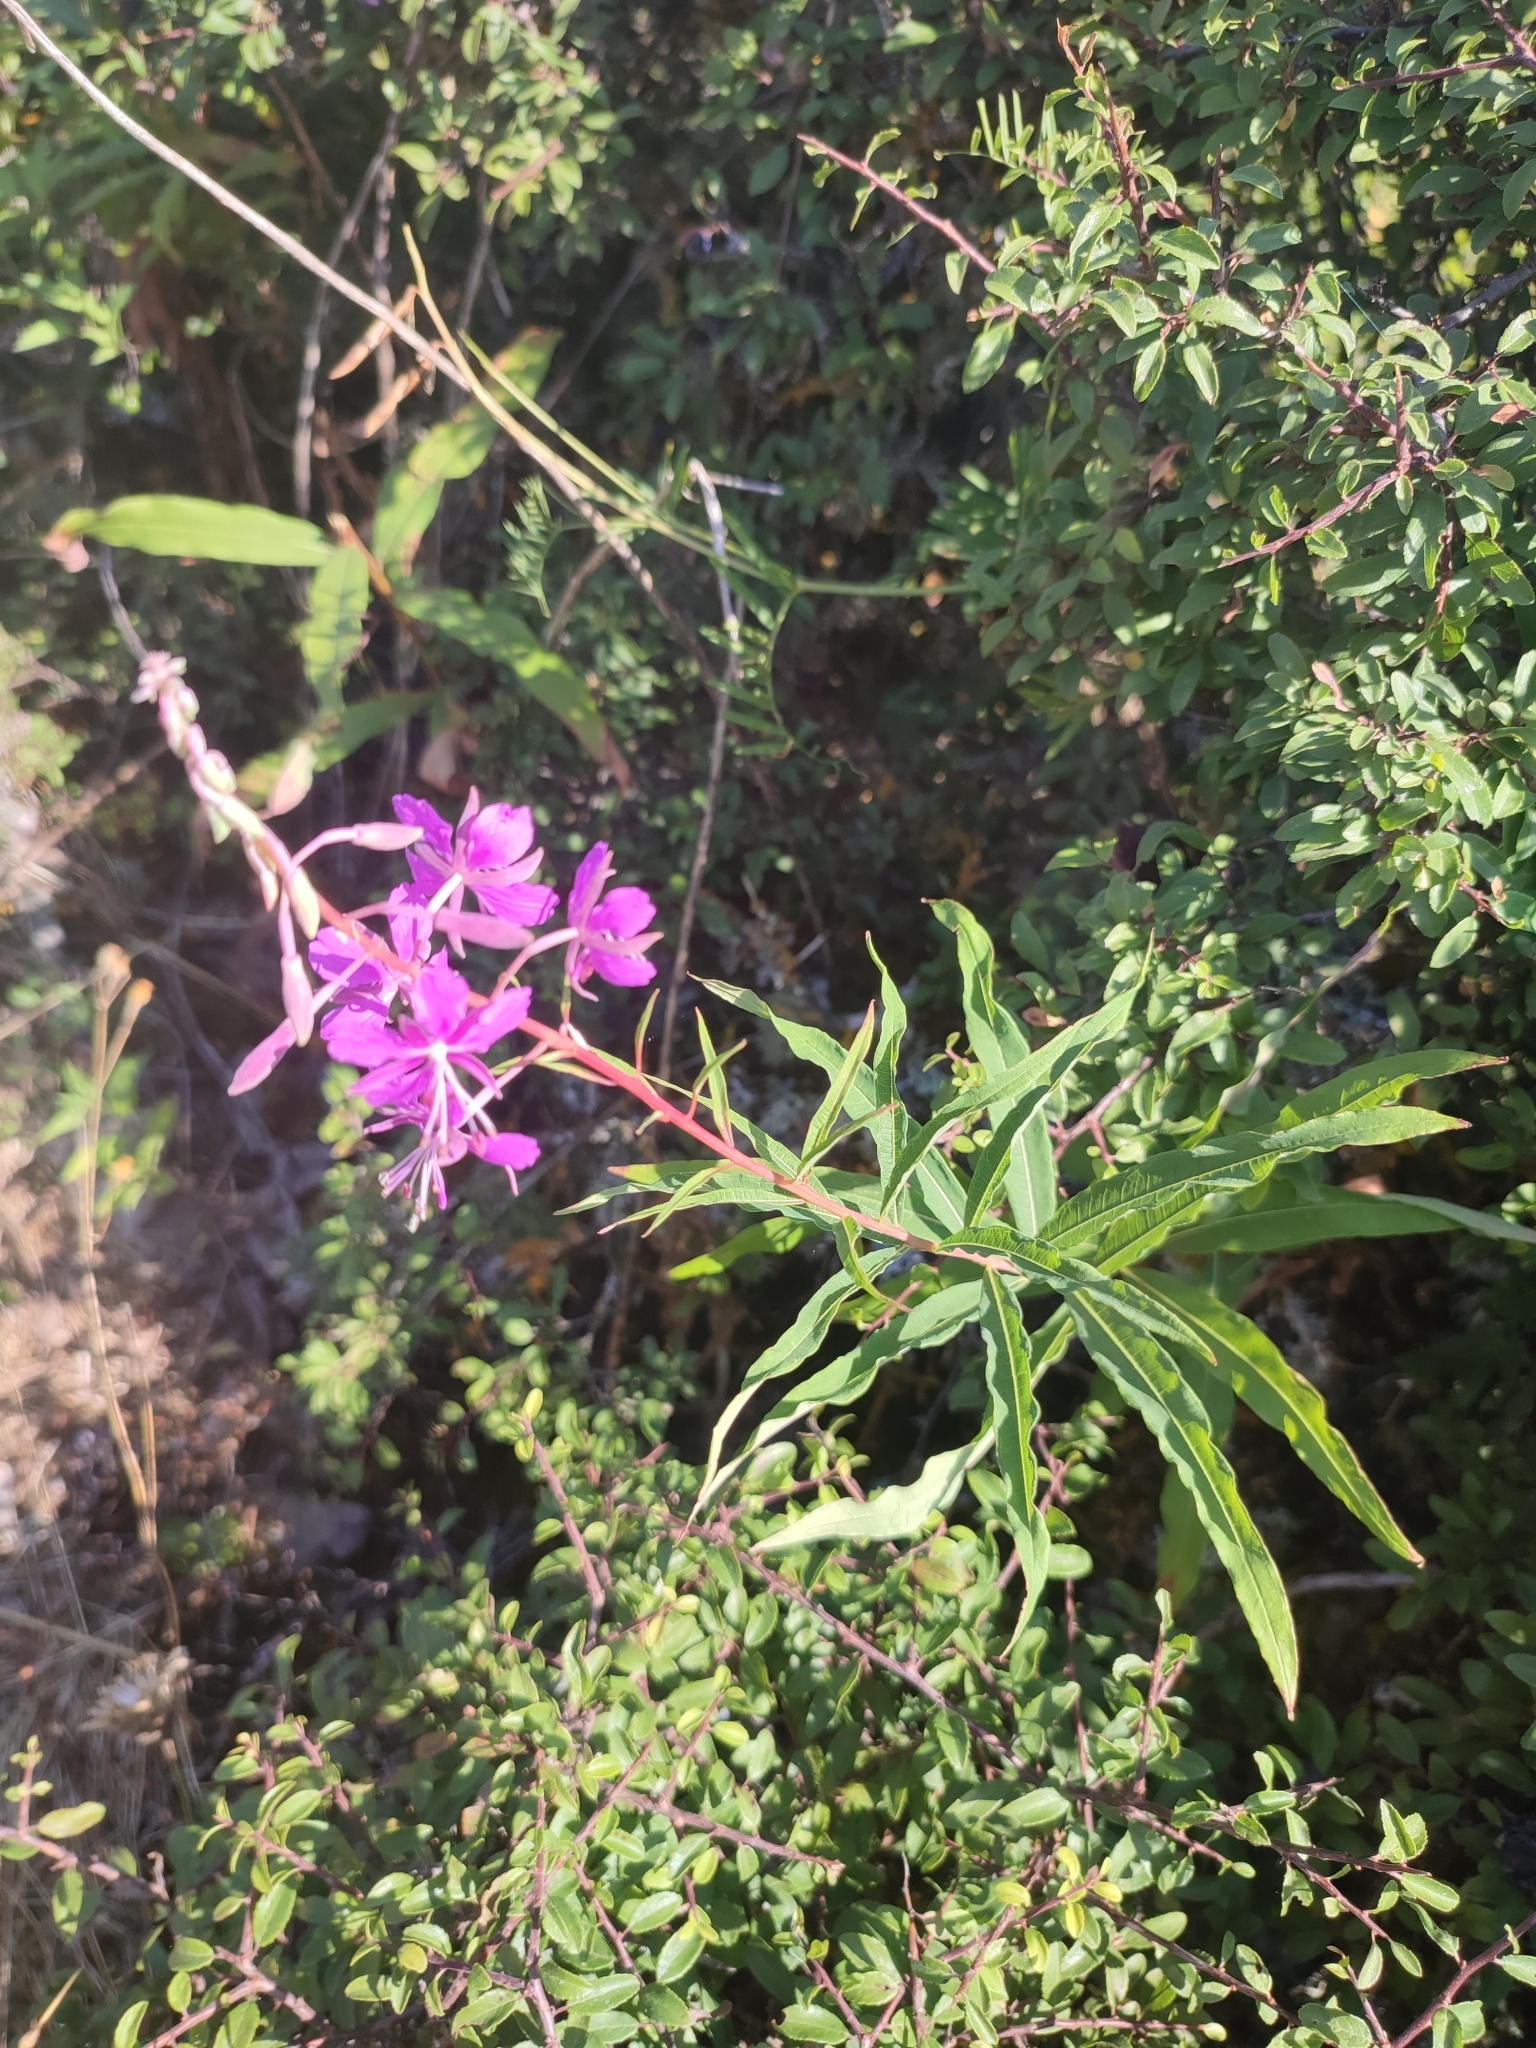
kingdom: Plantae
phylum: Tracheophyta
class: Magnoliopsida
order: Myrtales
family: Onagraceae
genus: Chamaenerion
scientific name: Chamaenerion angustifolium
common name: Fireweed
